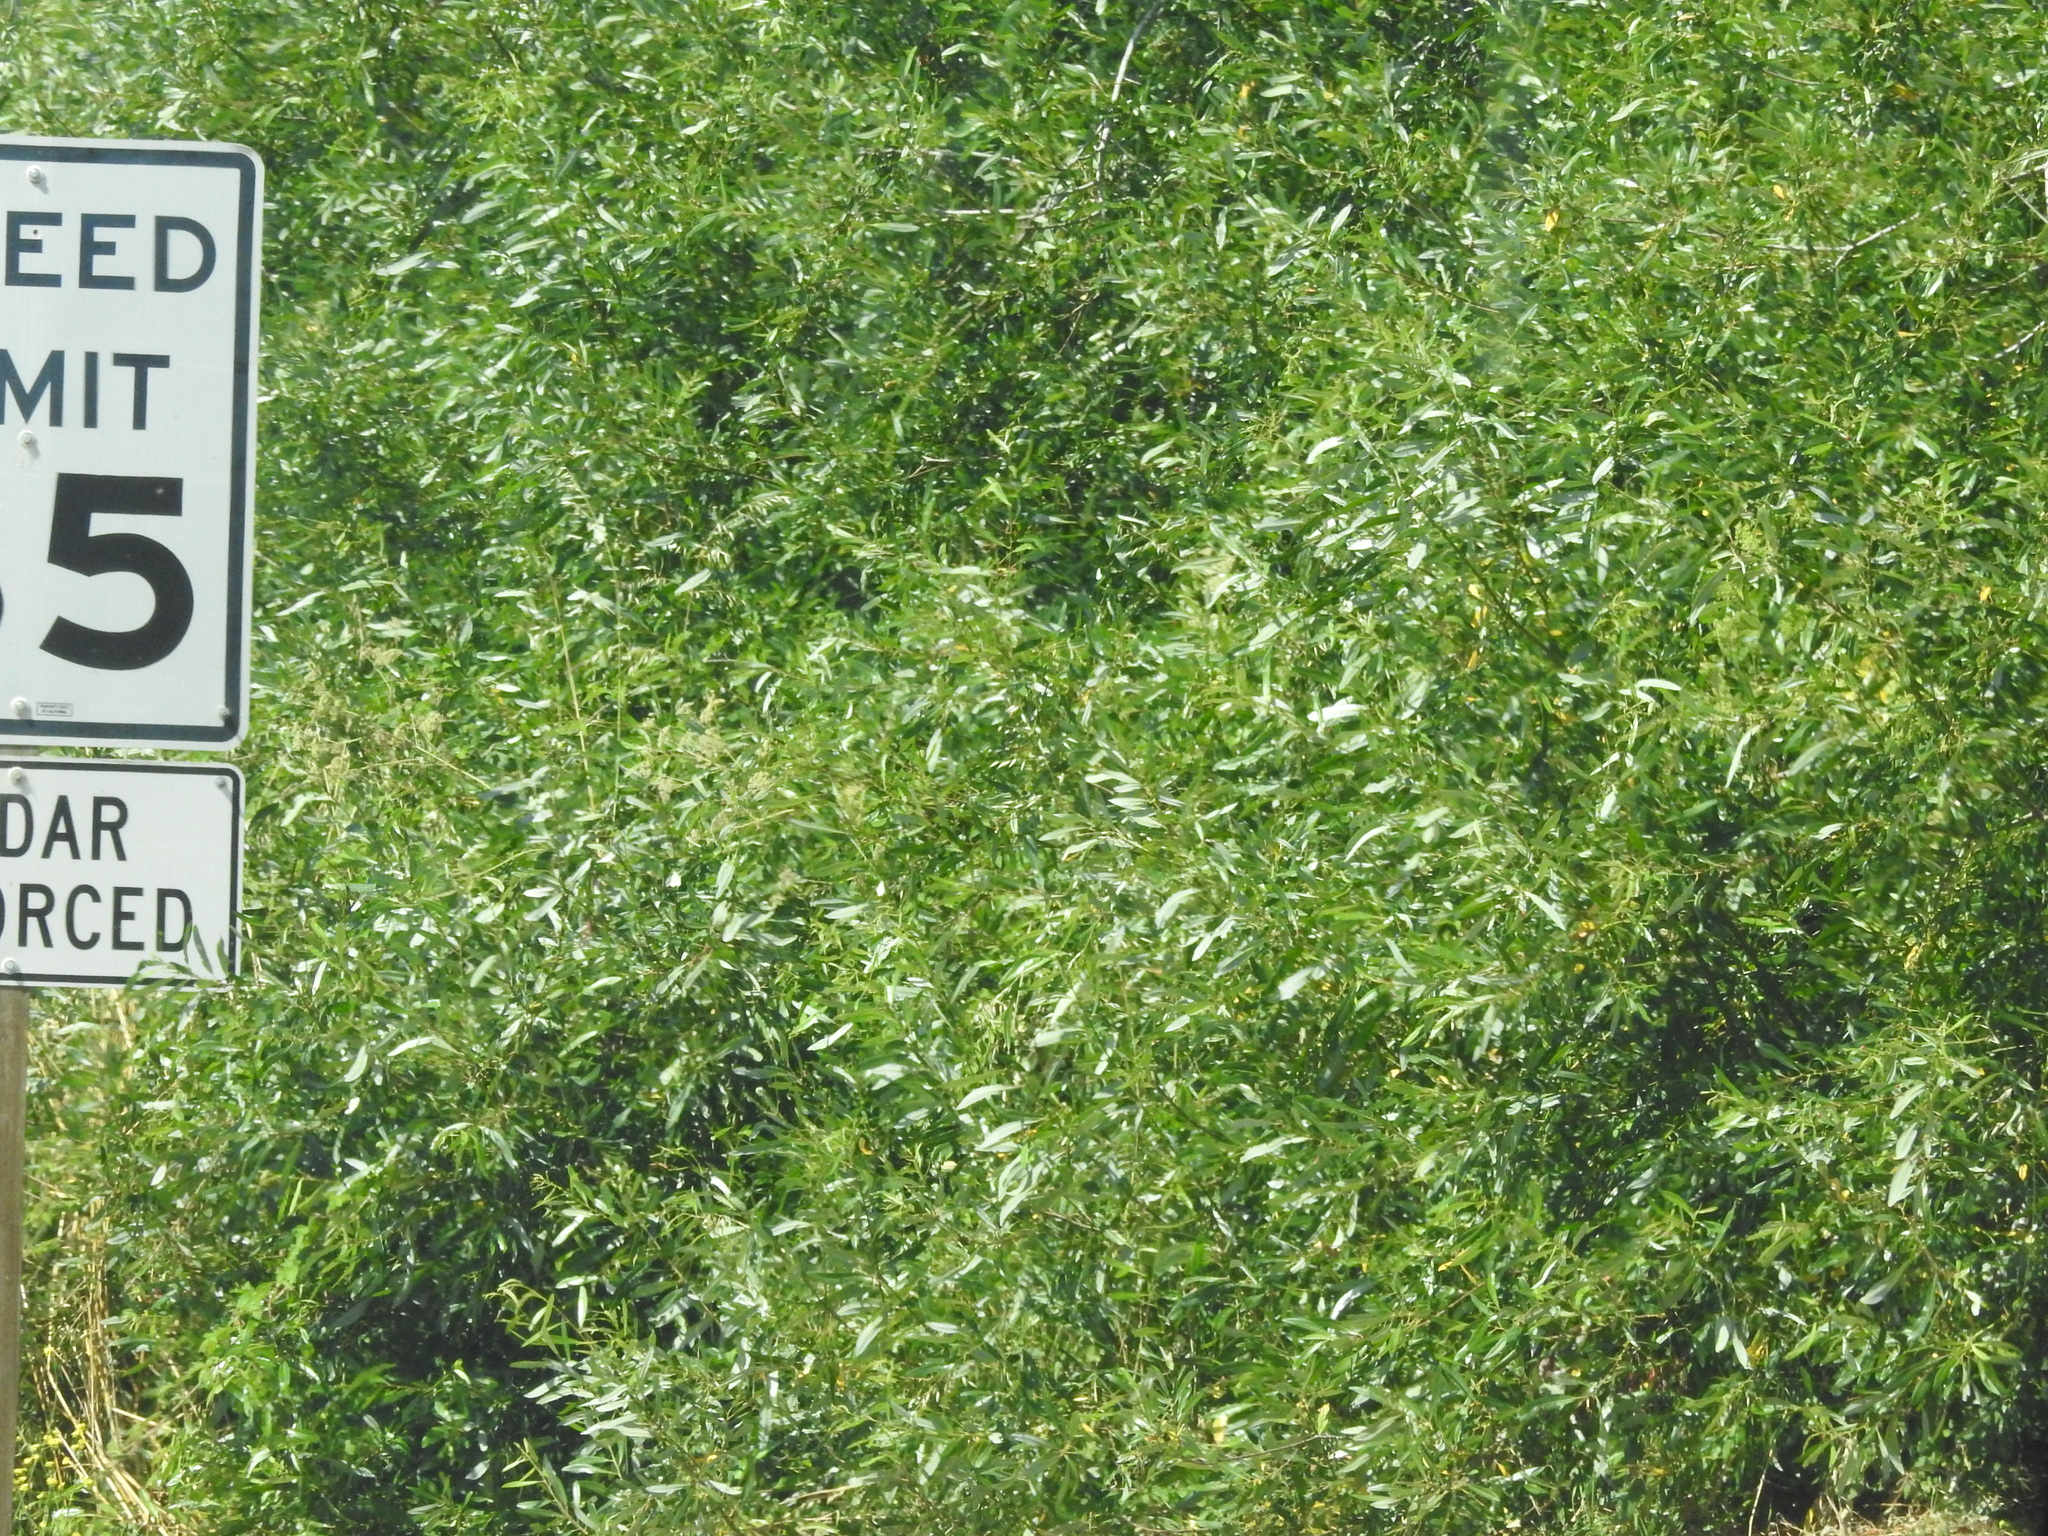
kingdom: Plantae
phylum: Tracheophyta
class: Magnoliopsida
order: Malpighiales
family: Salicaceae
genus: Salix
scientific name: Salix lasiolepis
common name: Arroyo willow
